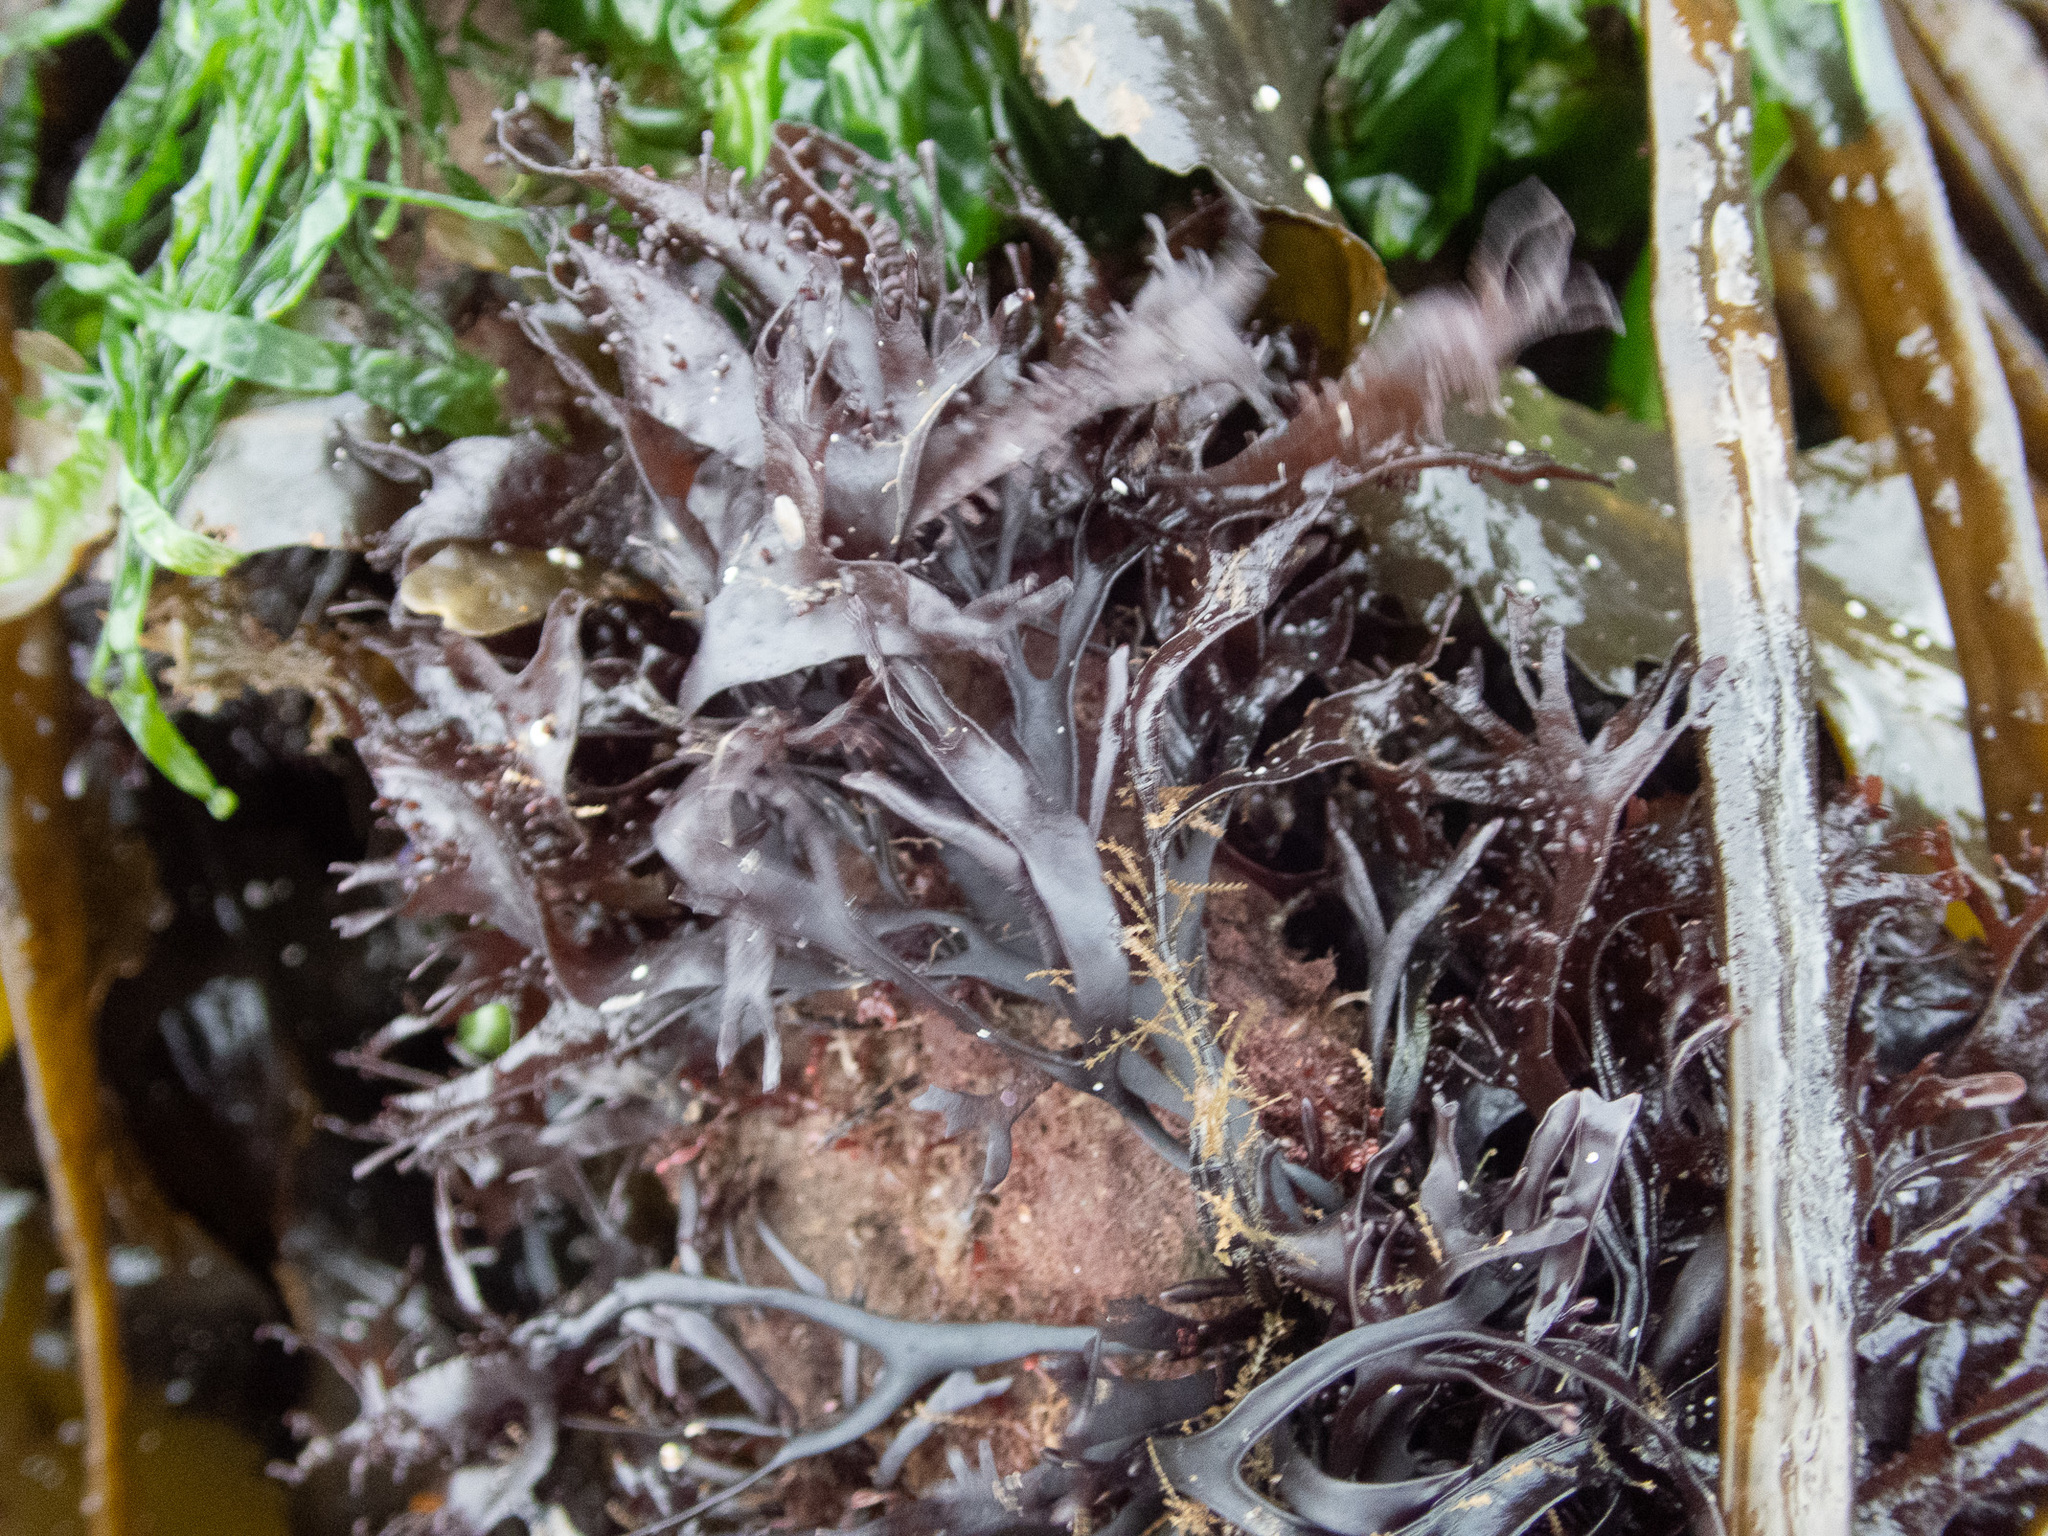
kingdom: Plantae
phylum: Rhodophyta
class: Florideophyceae
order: Gigartinales
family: Phyllophoraceae
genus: Mastocarpus
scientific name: Mastocarpus stellatus
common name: False irish moss
